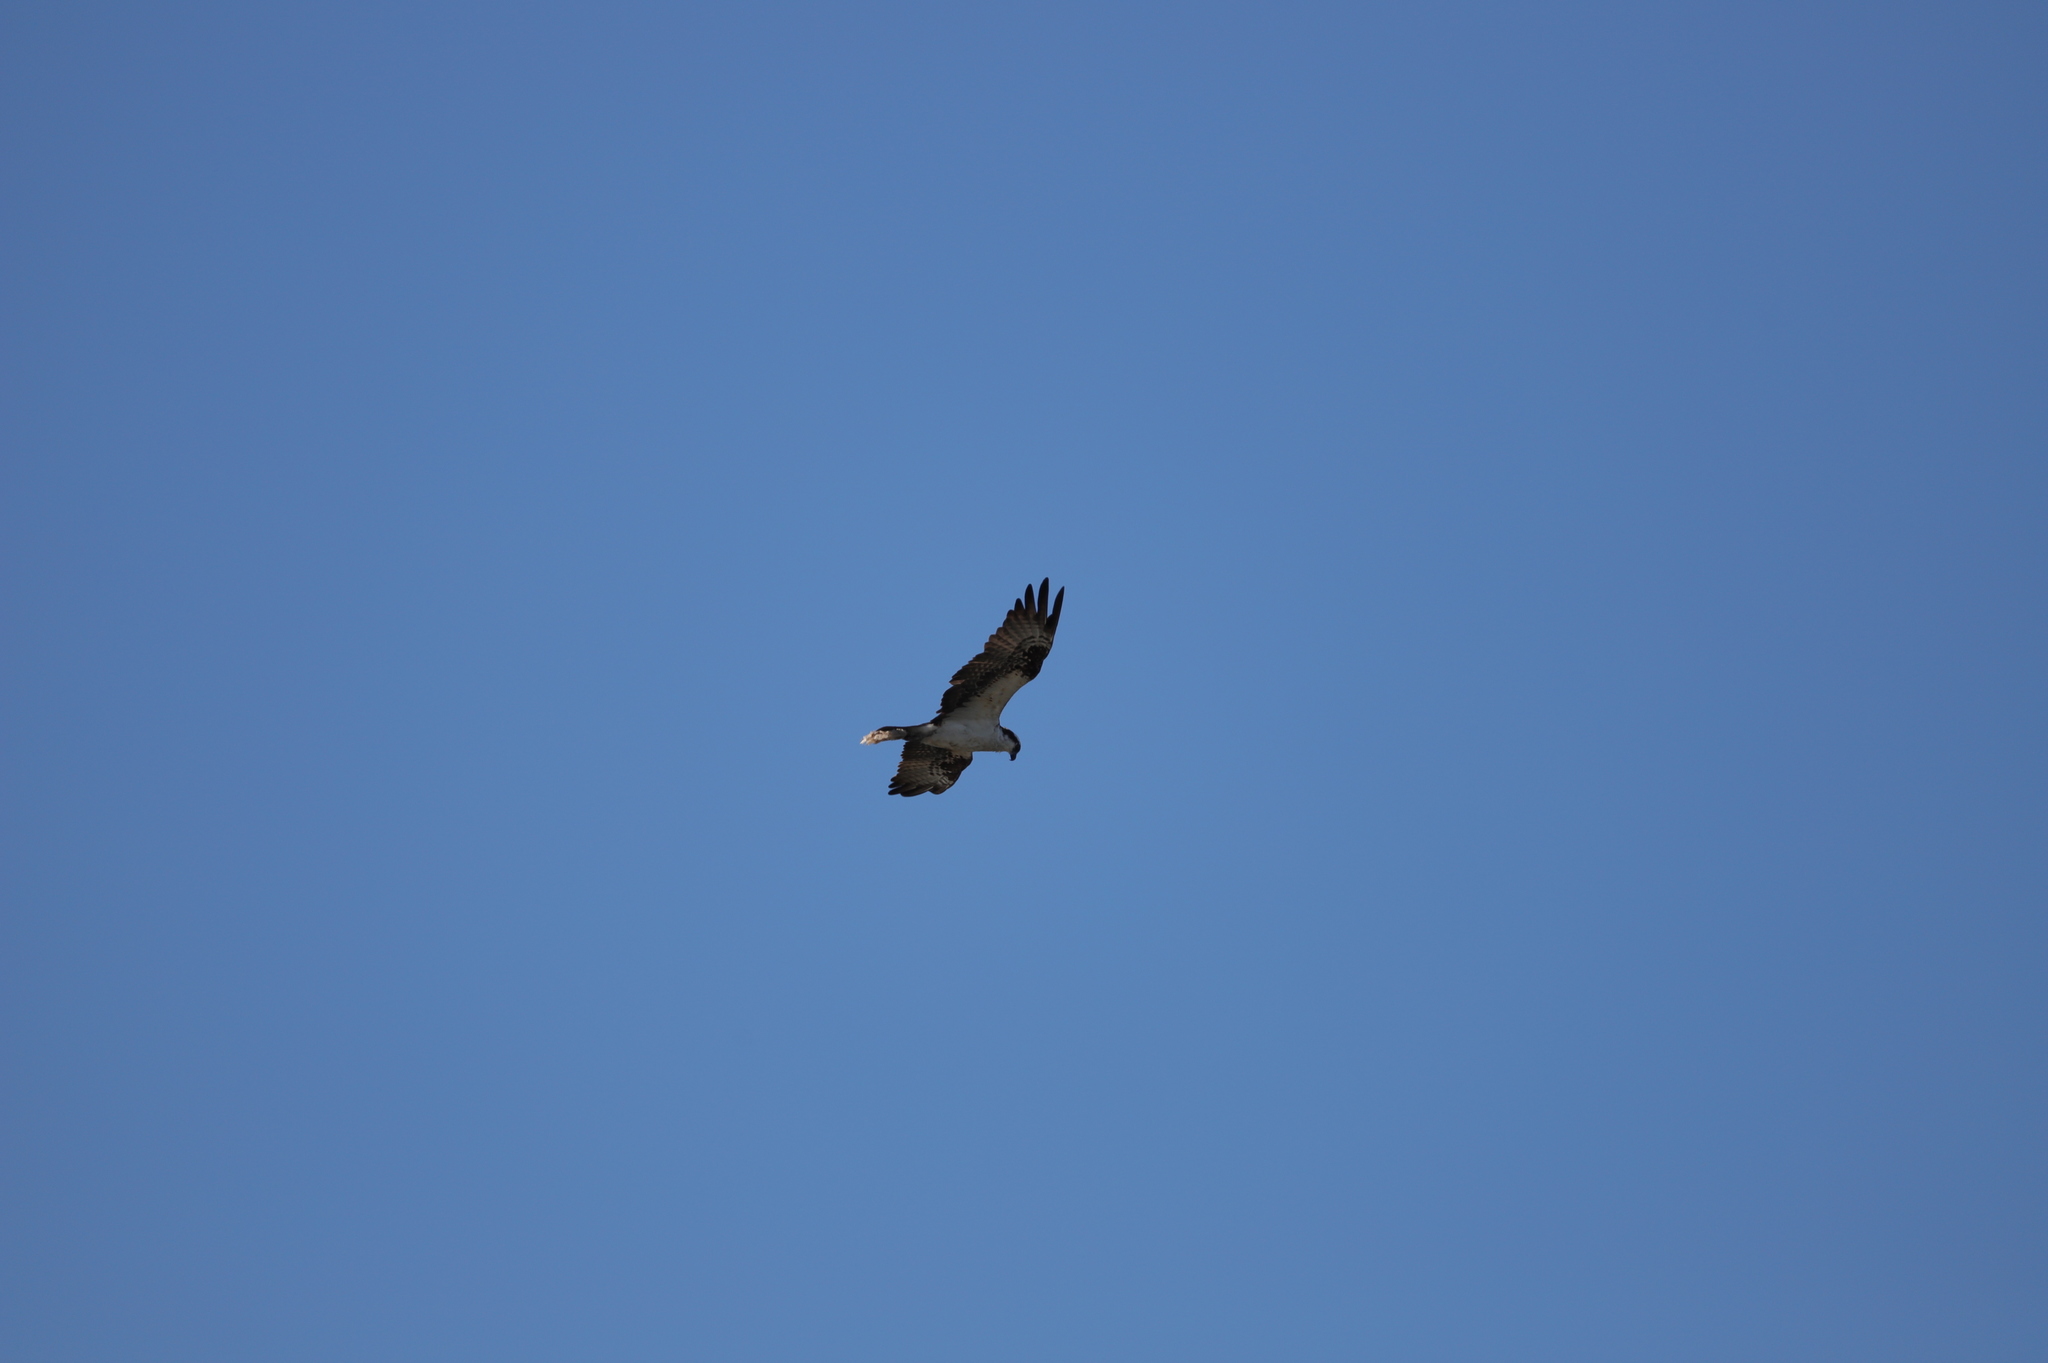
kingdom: Animalia
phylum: Chordata
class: Aves
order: Accipitriformes
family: Pandionidae
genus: Pandion
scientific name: Pandion haliaetus
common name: Osprey
